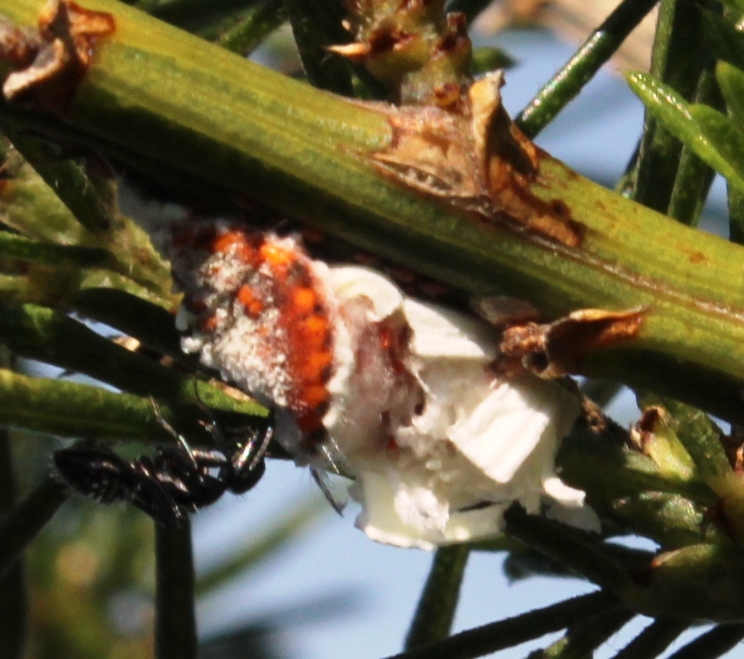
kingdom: Animalia
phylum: Arthropoda
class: Insecta
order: Hemiptera
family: Margarodidae
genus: Icerya
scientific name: Icerya purchasi
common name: Cottony cushion scale
